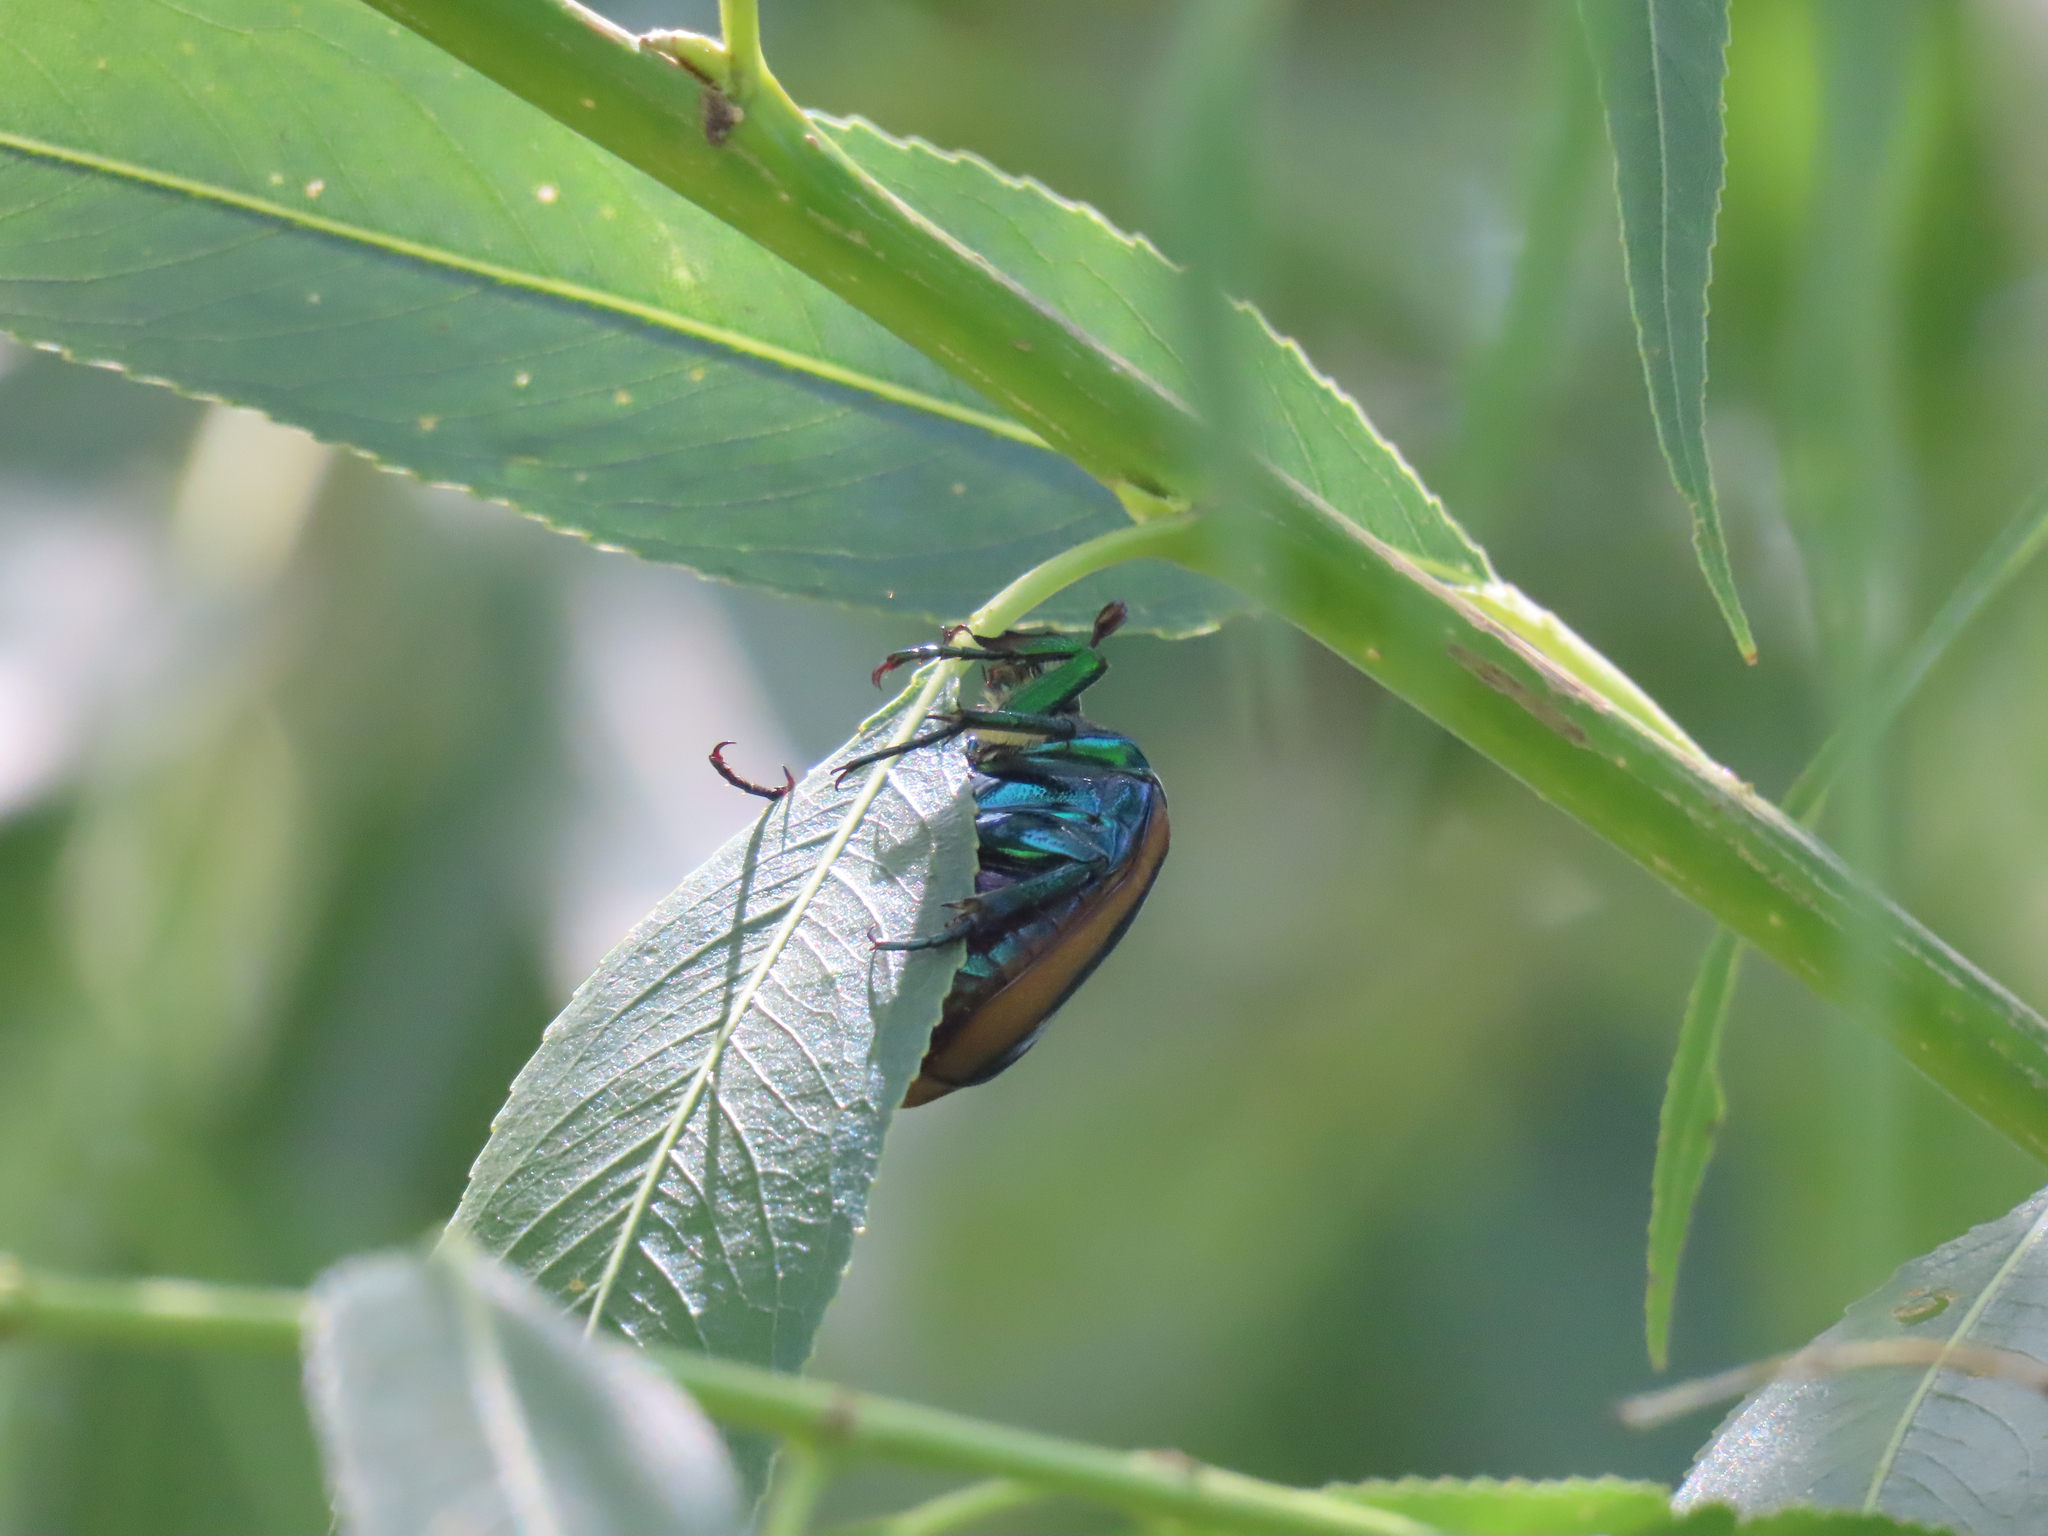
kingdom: Animalia
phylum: Arthropoda
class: Insecta
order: Coleoptera
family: Scarabaeidae
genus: Cotinis
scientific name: Cotinis mutabilis
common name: Figeater beetle
